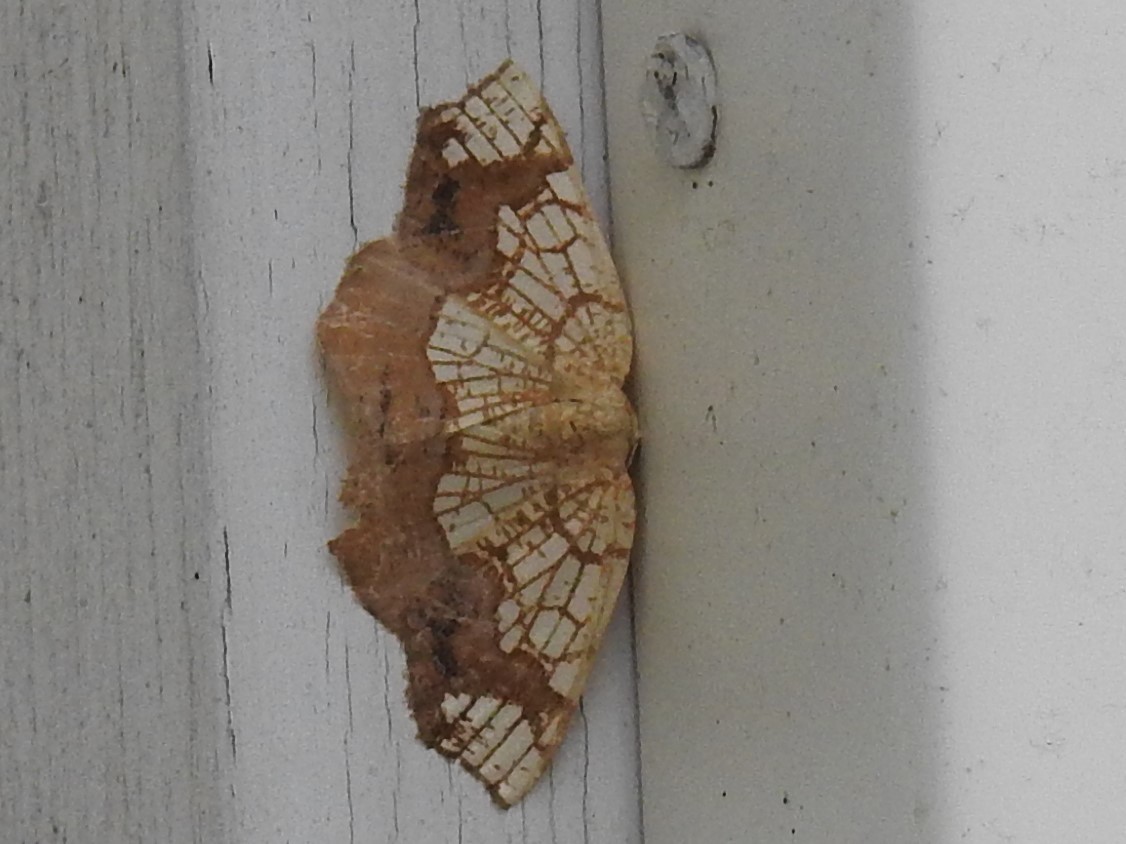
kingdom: Animalia
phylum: Arthropoda
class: Insecta
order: Lepidoptera
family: Geometridae
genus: Nematocampa
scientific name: Nematocampa resistaria
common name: Horned spanworm moth
